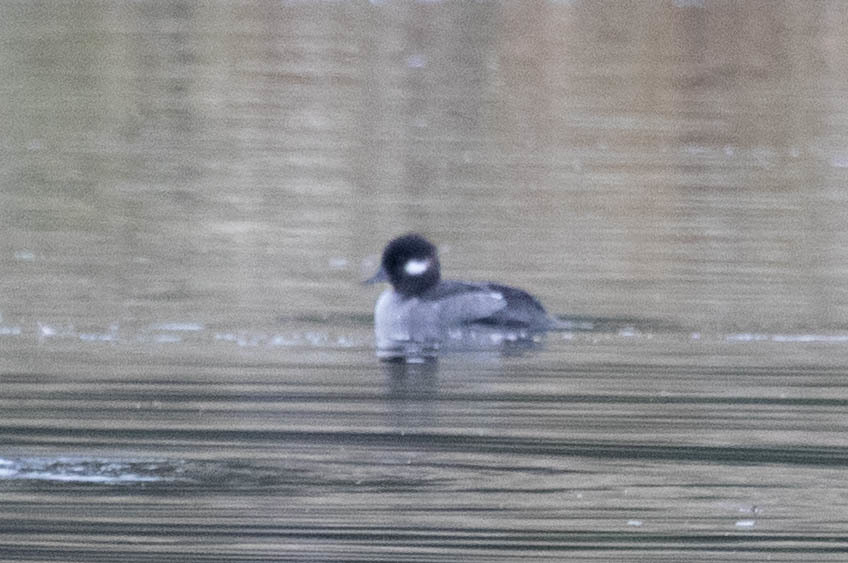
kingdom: Animalia
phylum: Chordata
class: Aves
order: Anseriformes
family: Anatidae
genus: Bucephala
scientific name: Bucephala albeola
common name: Bufflehead
